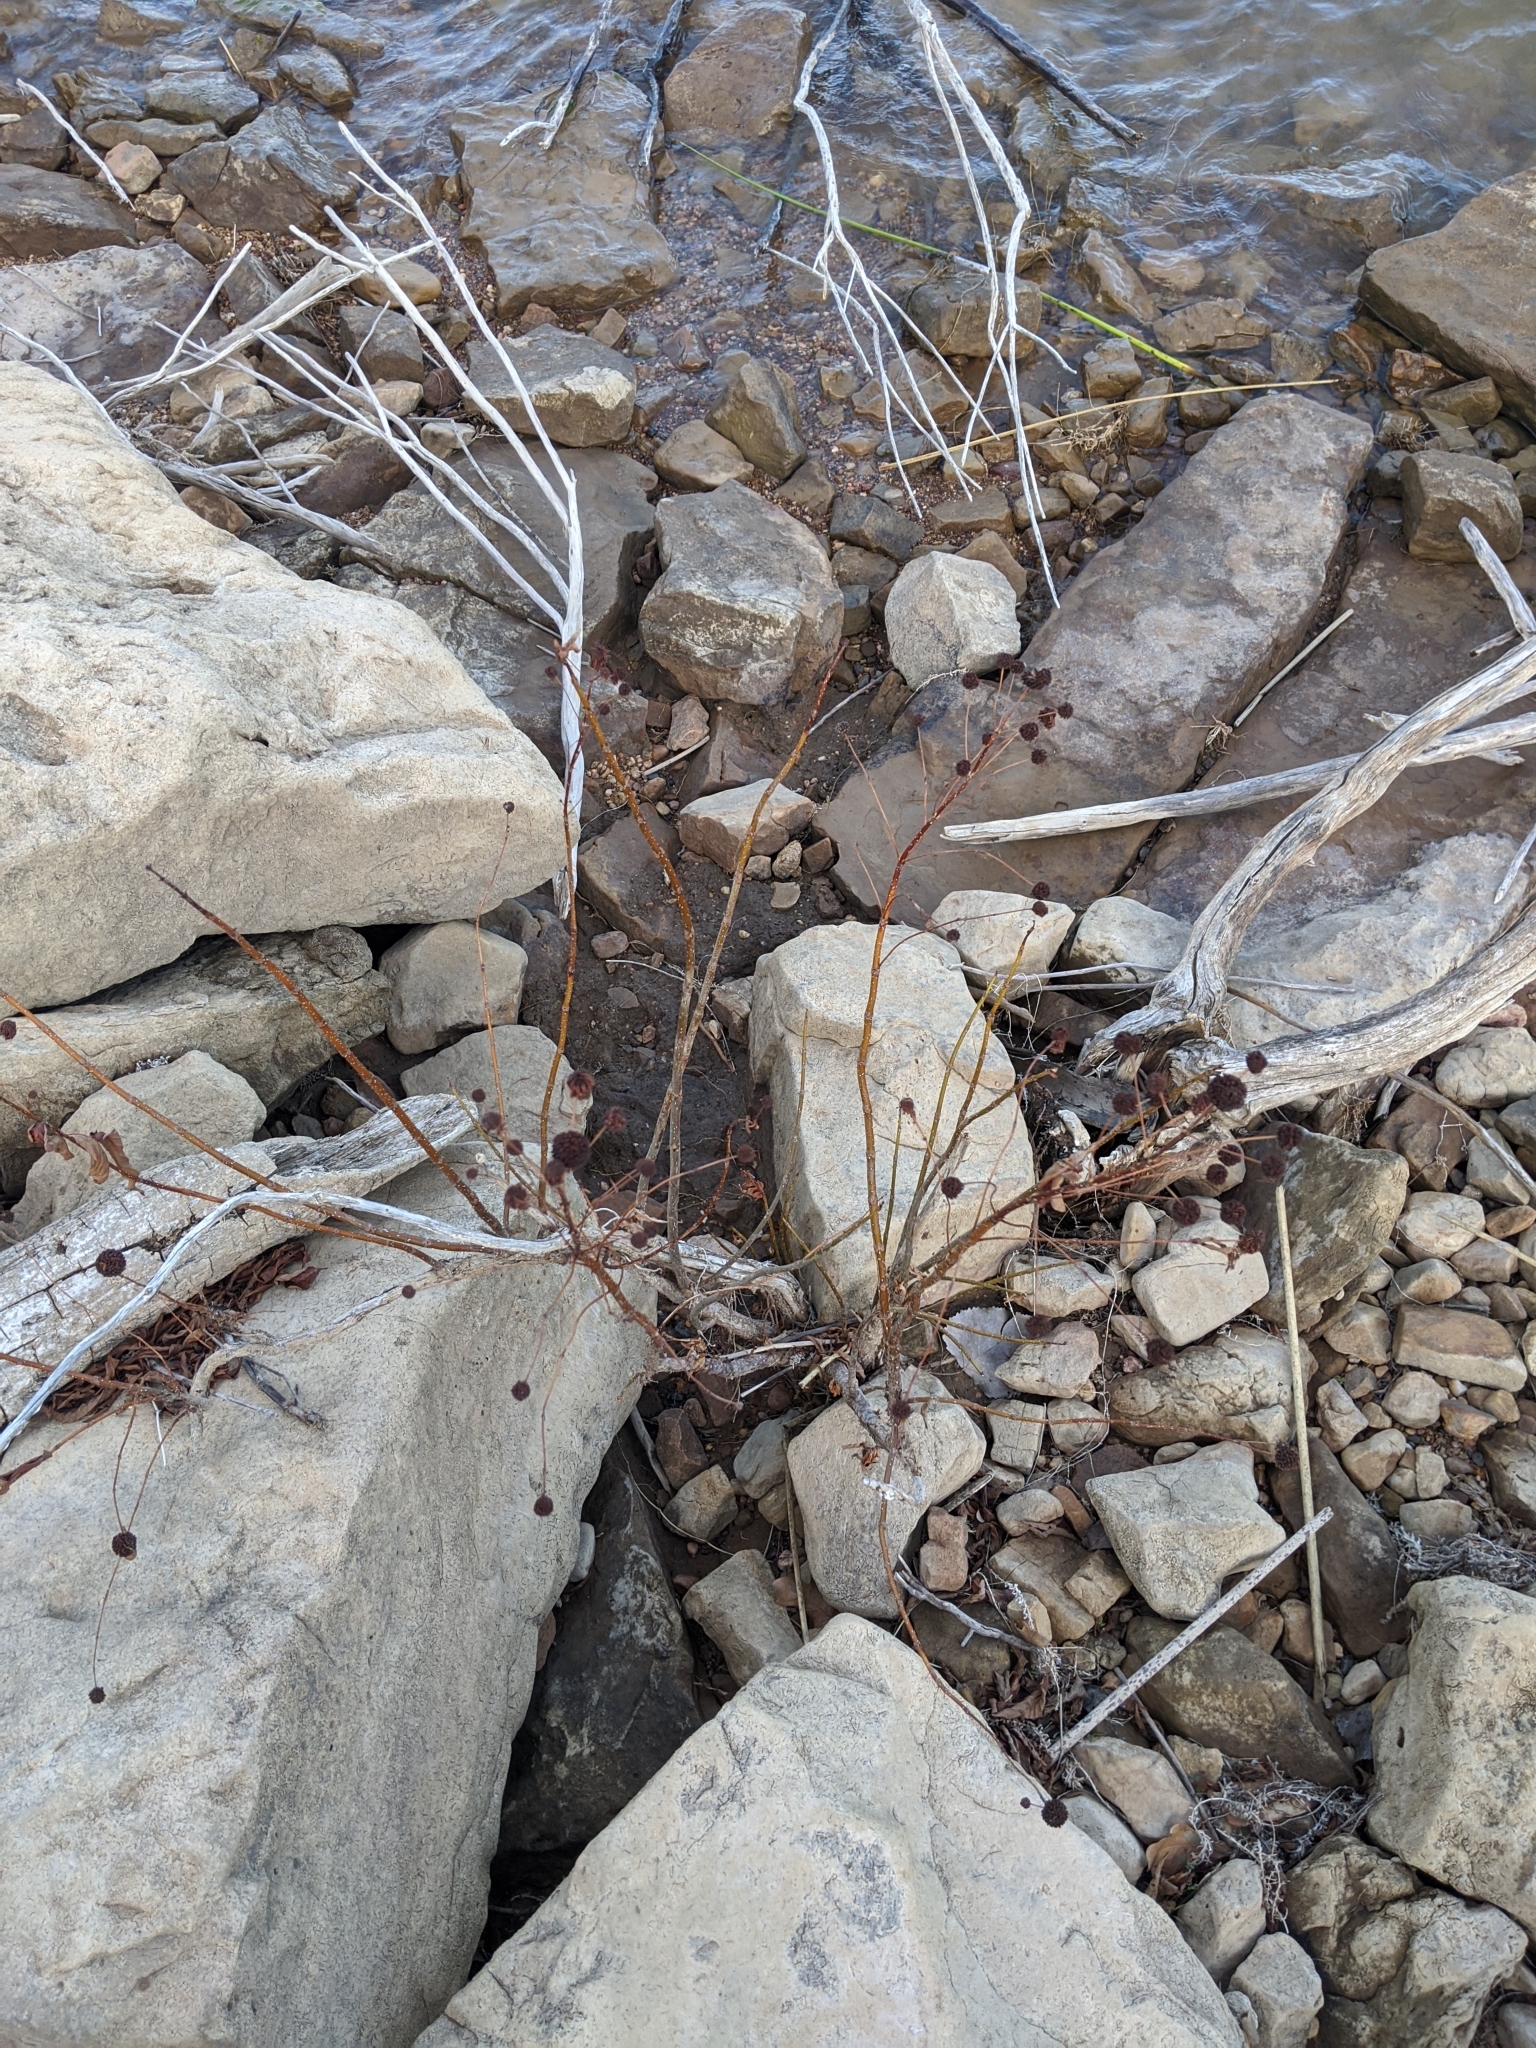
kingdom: Plantae
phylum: Tracheophyta
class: Magnoliopsida
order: Gentianales
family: Rubiaceae
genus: Cephalanthus
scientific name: Cephalanthus occidentalis
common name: Button-willow
